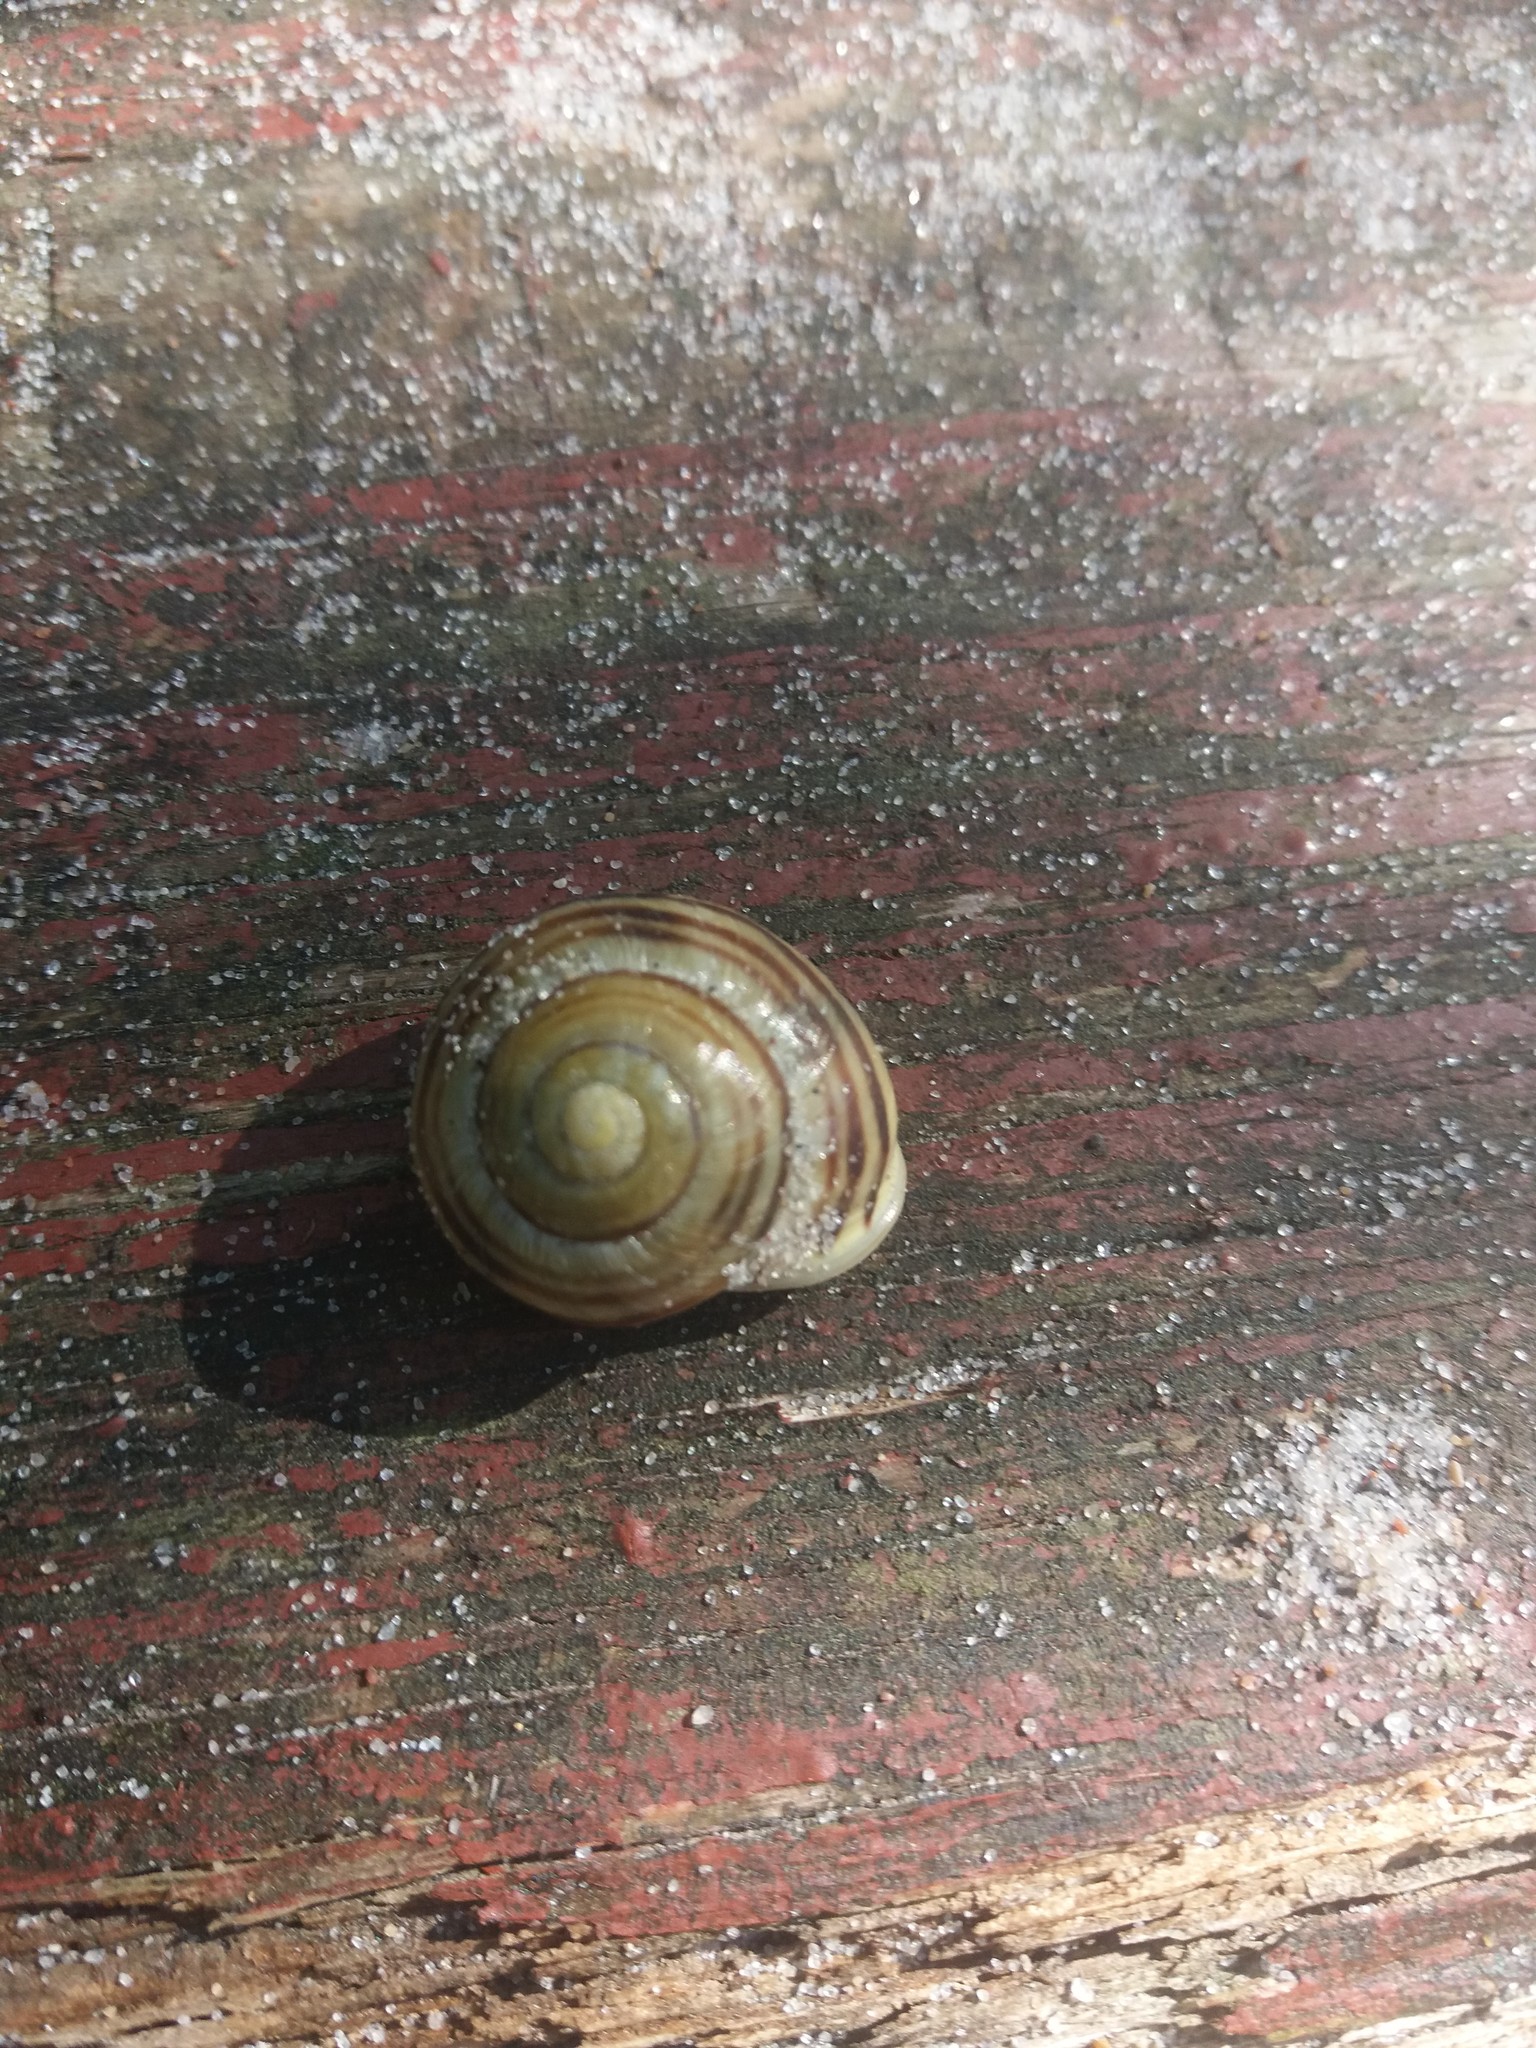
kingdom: Animalia
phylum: Mollusca
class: Gastropoda
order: Stylommatophora
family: Helicidae
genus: Cepaea
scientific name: Cepaea hortensis
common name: White-lip gardensnail
